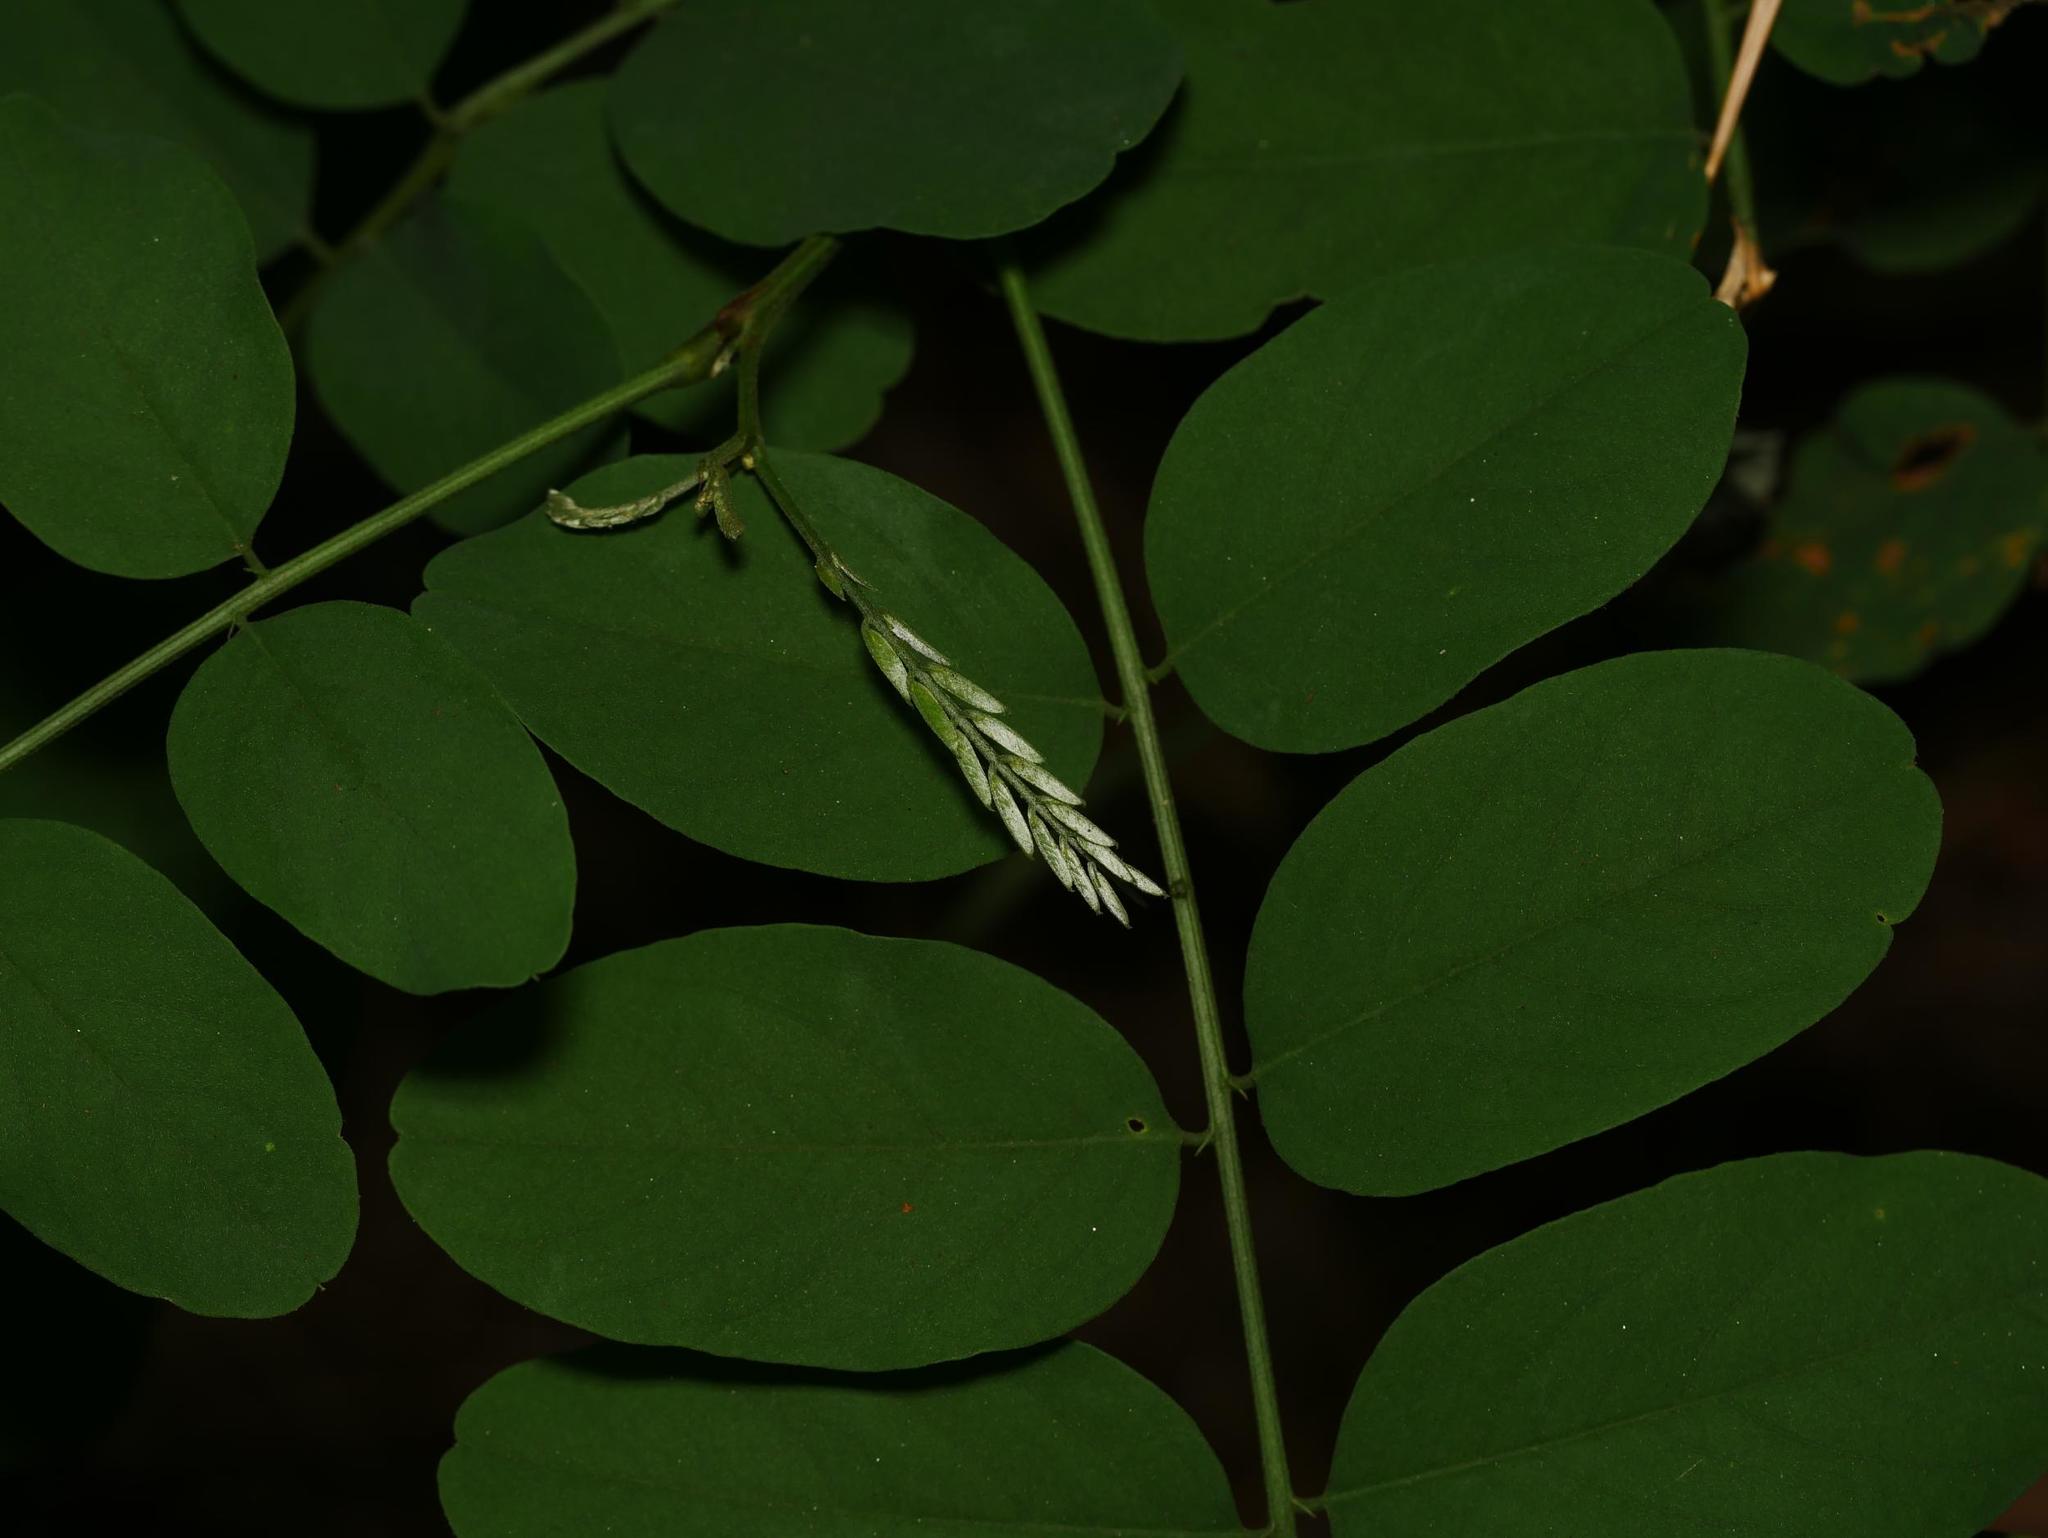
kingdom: Plantae
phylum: Tracheophyta
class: Magnoliopsida
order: Fabales
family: Fabaceae
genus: Robinia
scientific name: Robinia pseudoacacia
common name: Black locust
